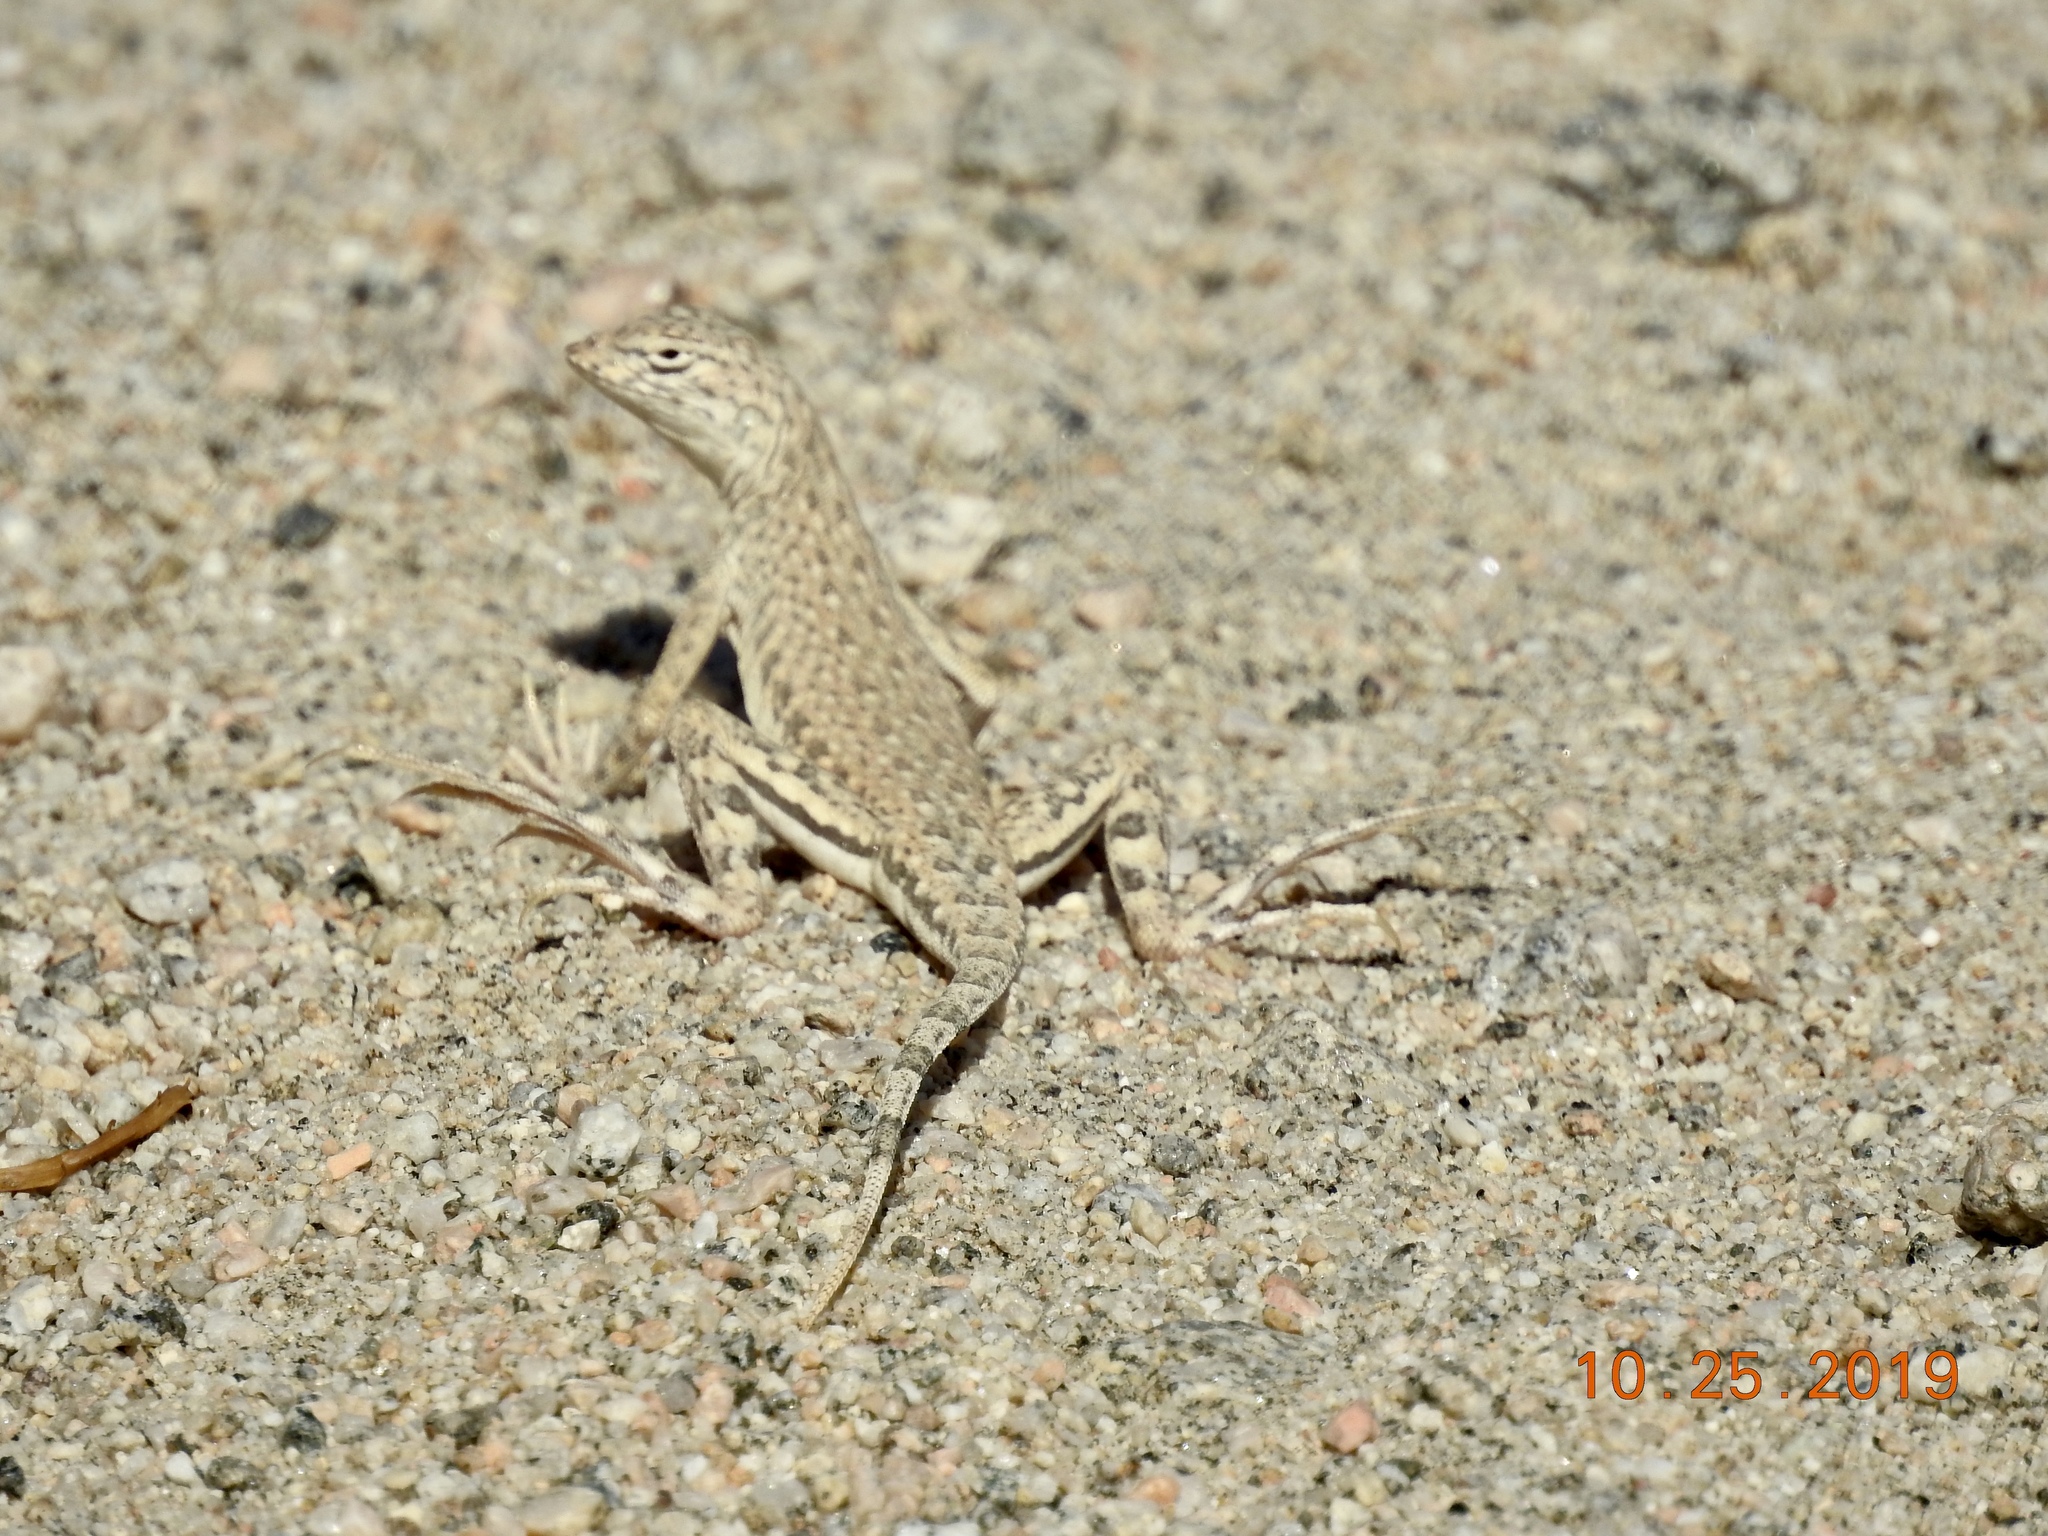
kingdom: Animalia
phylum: Chordata
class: Squamata
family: Phrynosomatidae
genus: Callisaurus
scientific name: Callisaurus draconoides
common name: Zebra-tailed lizard
